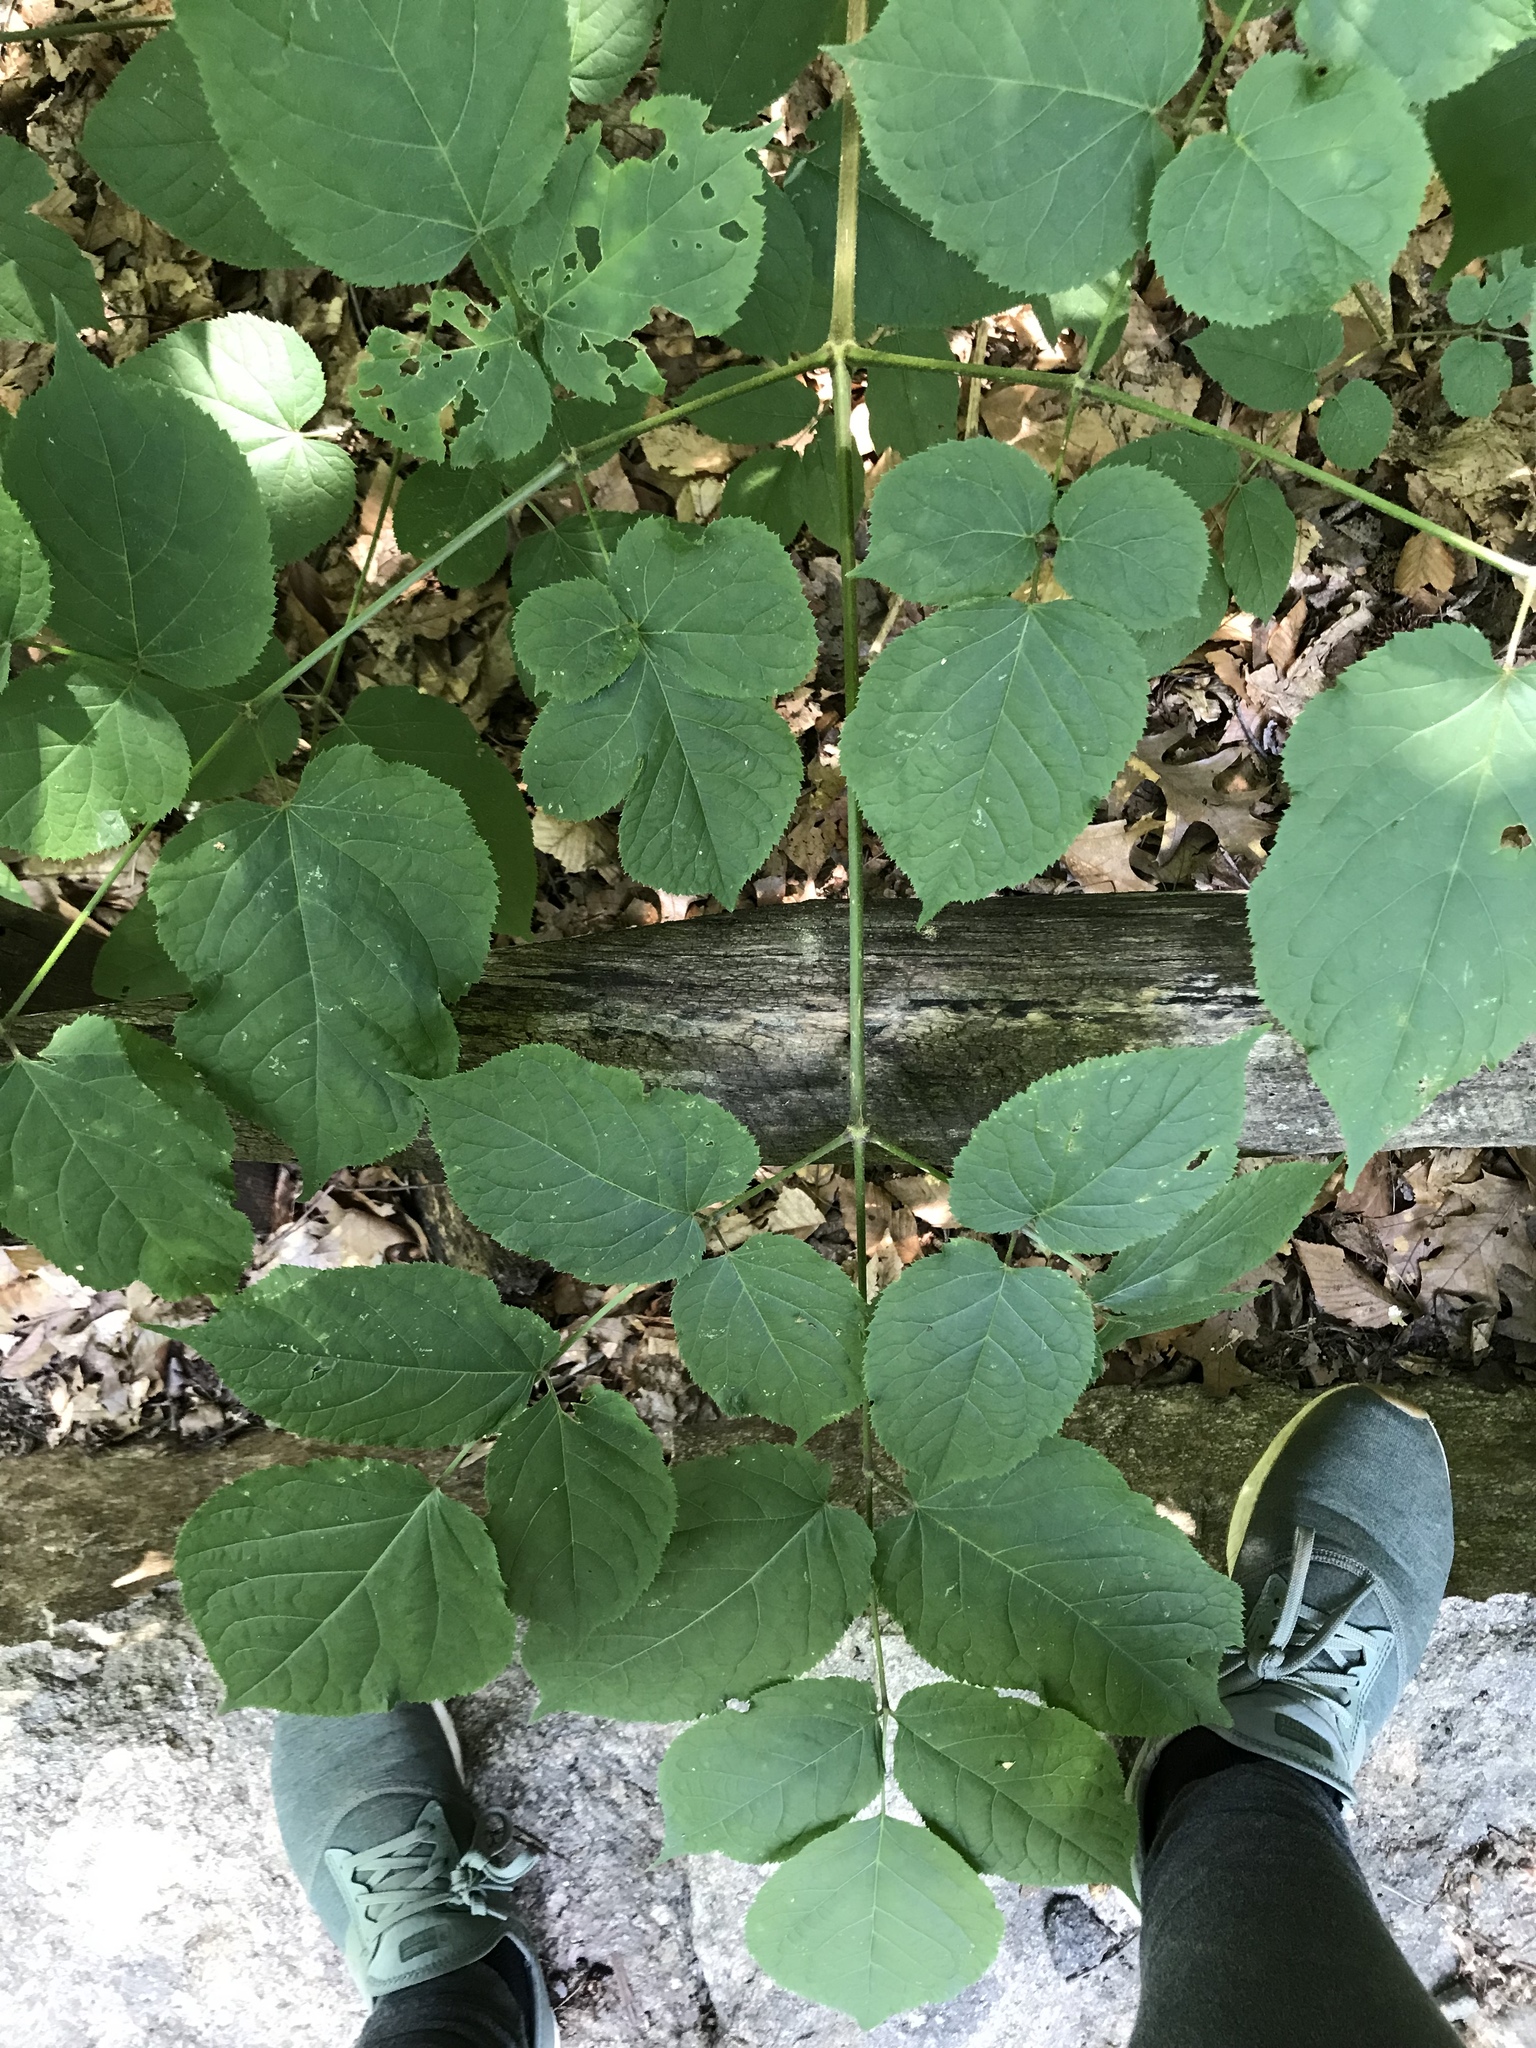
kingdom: Plantae
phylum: Tracheophyta
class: Magnoliopsida
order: Apiales
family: Araliaceae
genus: Aralia
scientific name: Aralia racemosa
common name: American-spikenard
